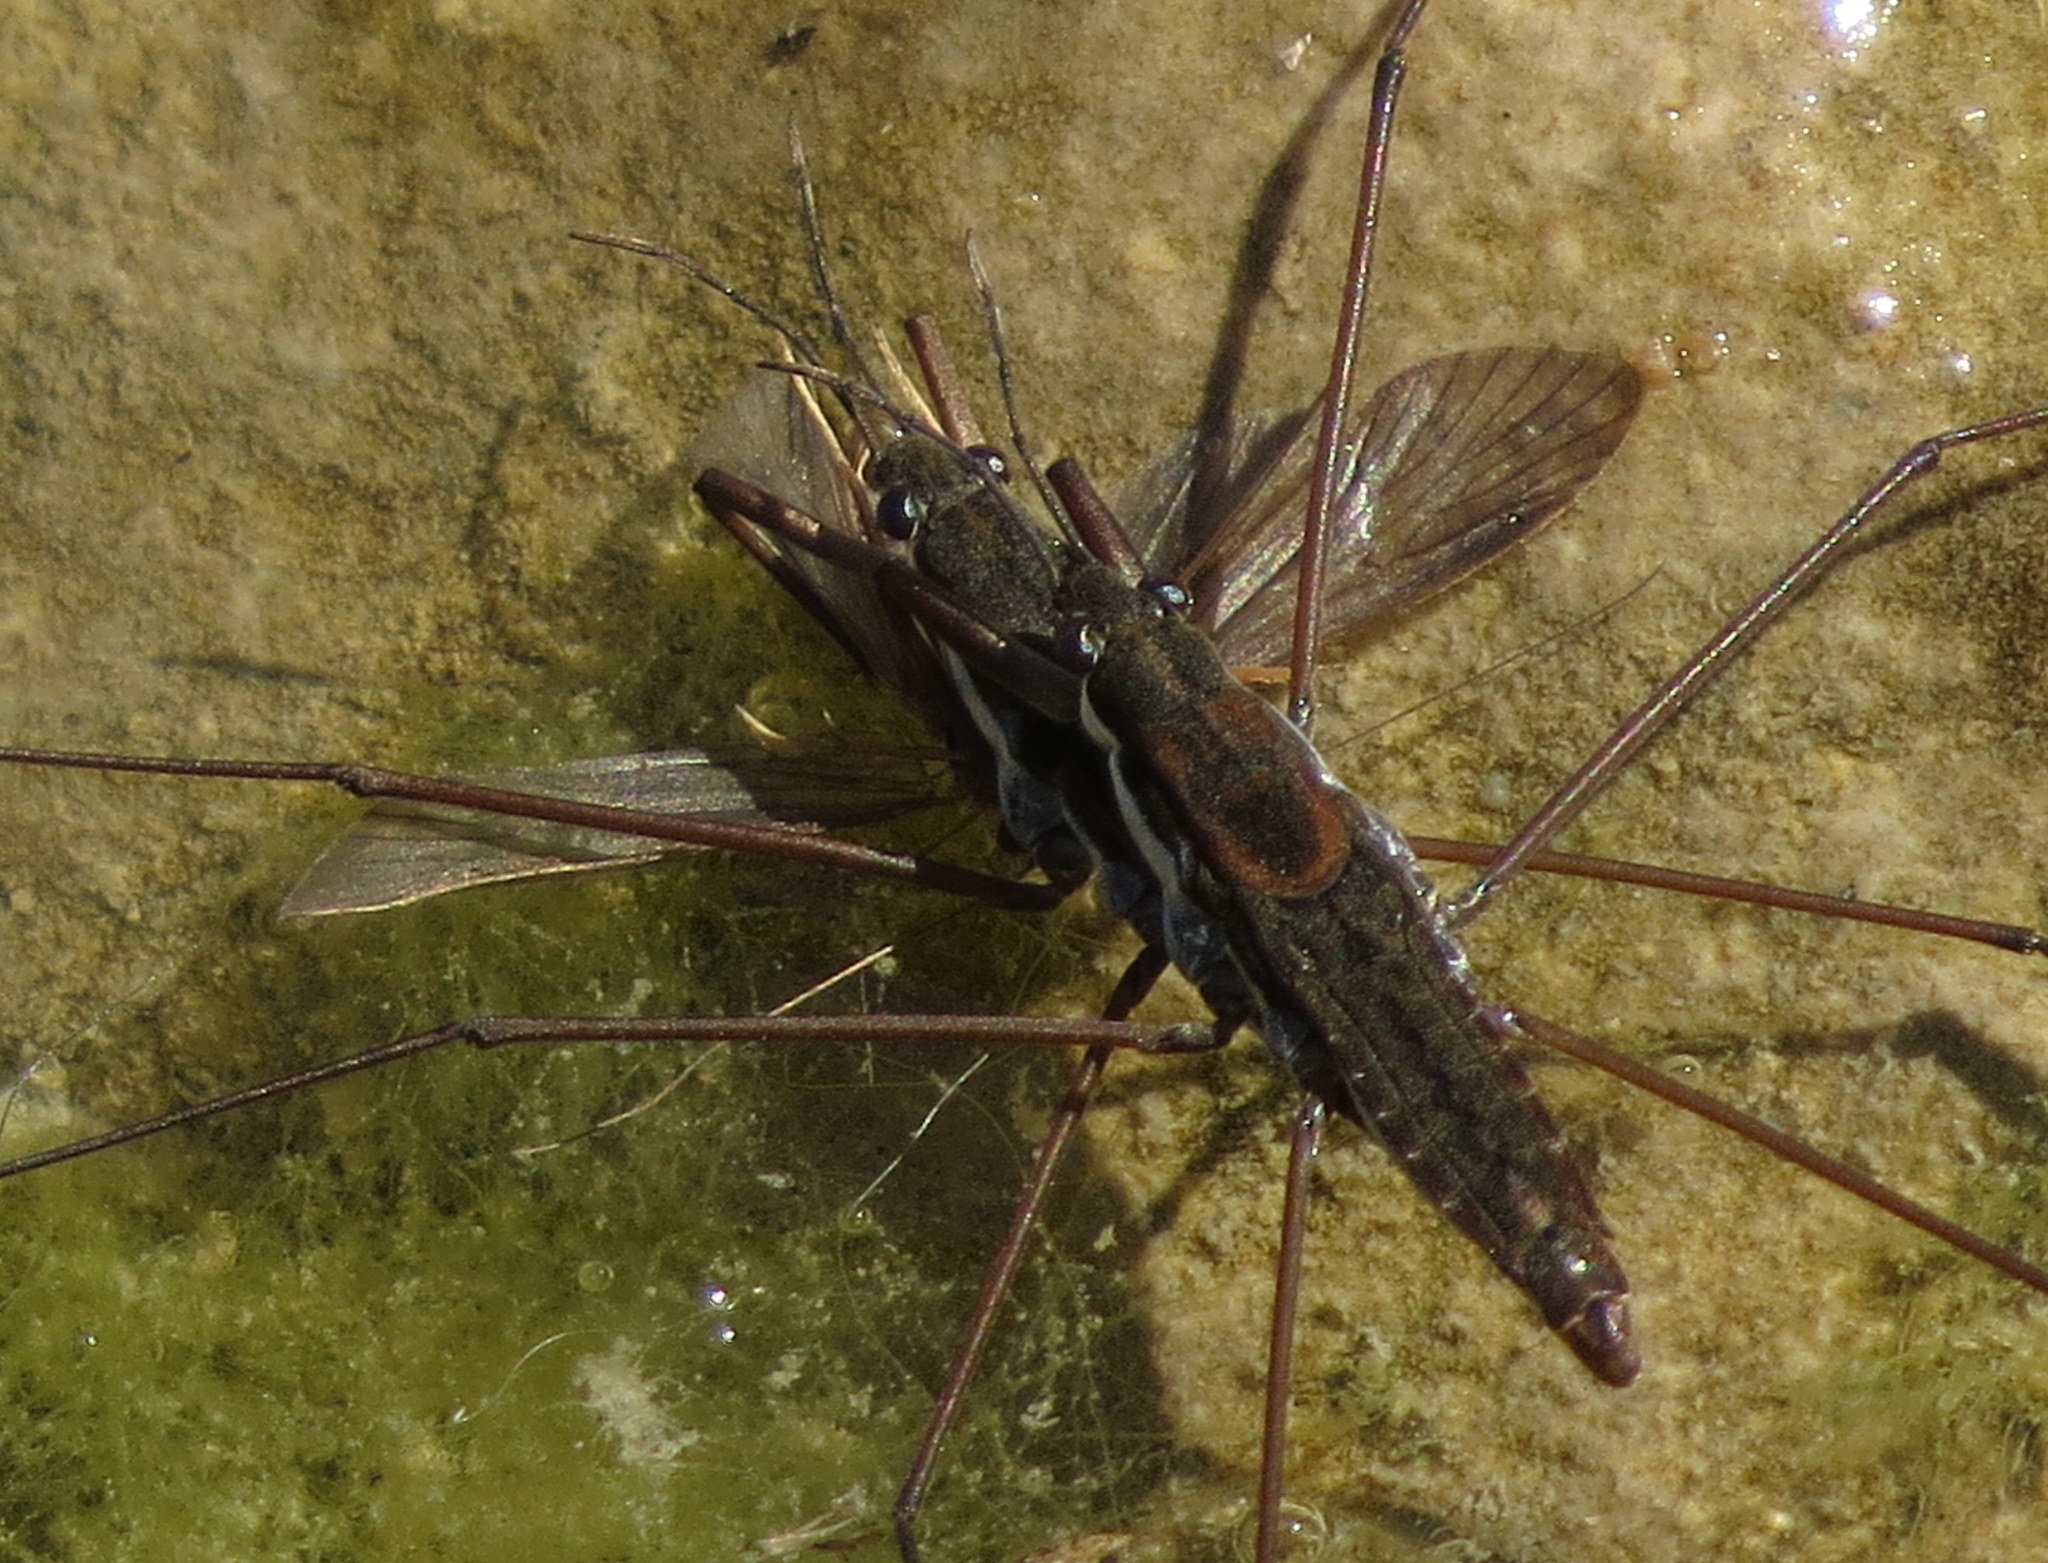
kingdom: Animalia
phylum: Arthropoda
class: Insecta
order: Hemiptera
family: Gerridae
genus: Aquarius
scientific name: Aquarius remigis
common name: Common water strider
